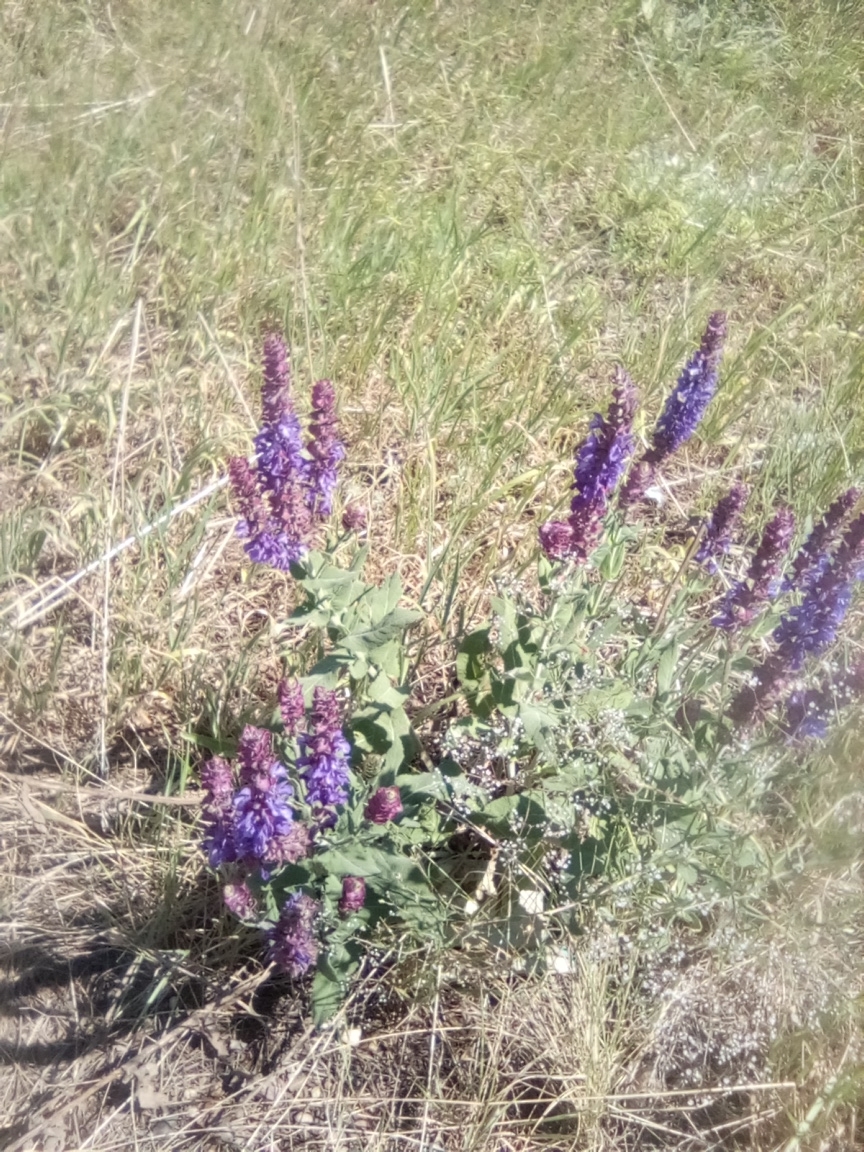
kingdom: Plantae
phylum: Tracheophyta
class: Magnoliopsida
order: Lamiales
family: Lamiaceae
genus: Salvia
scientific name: Salvia nemorosa
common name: Balkan clary
